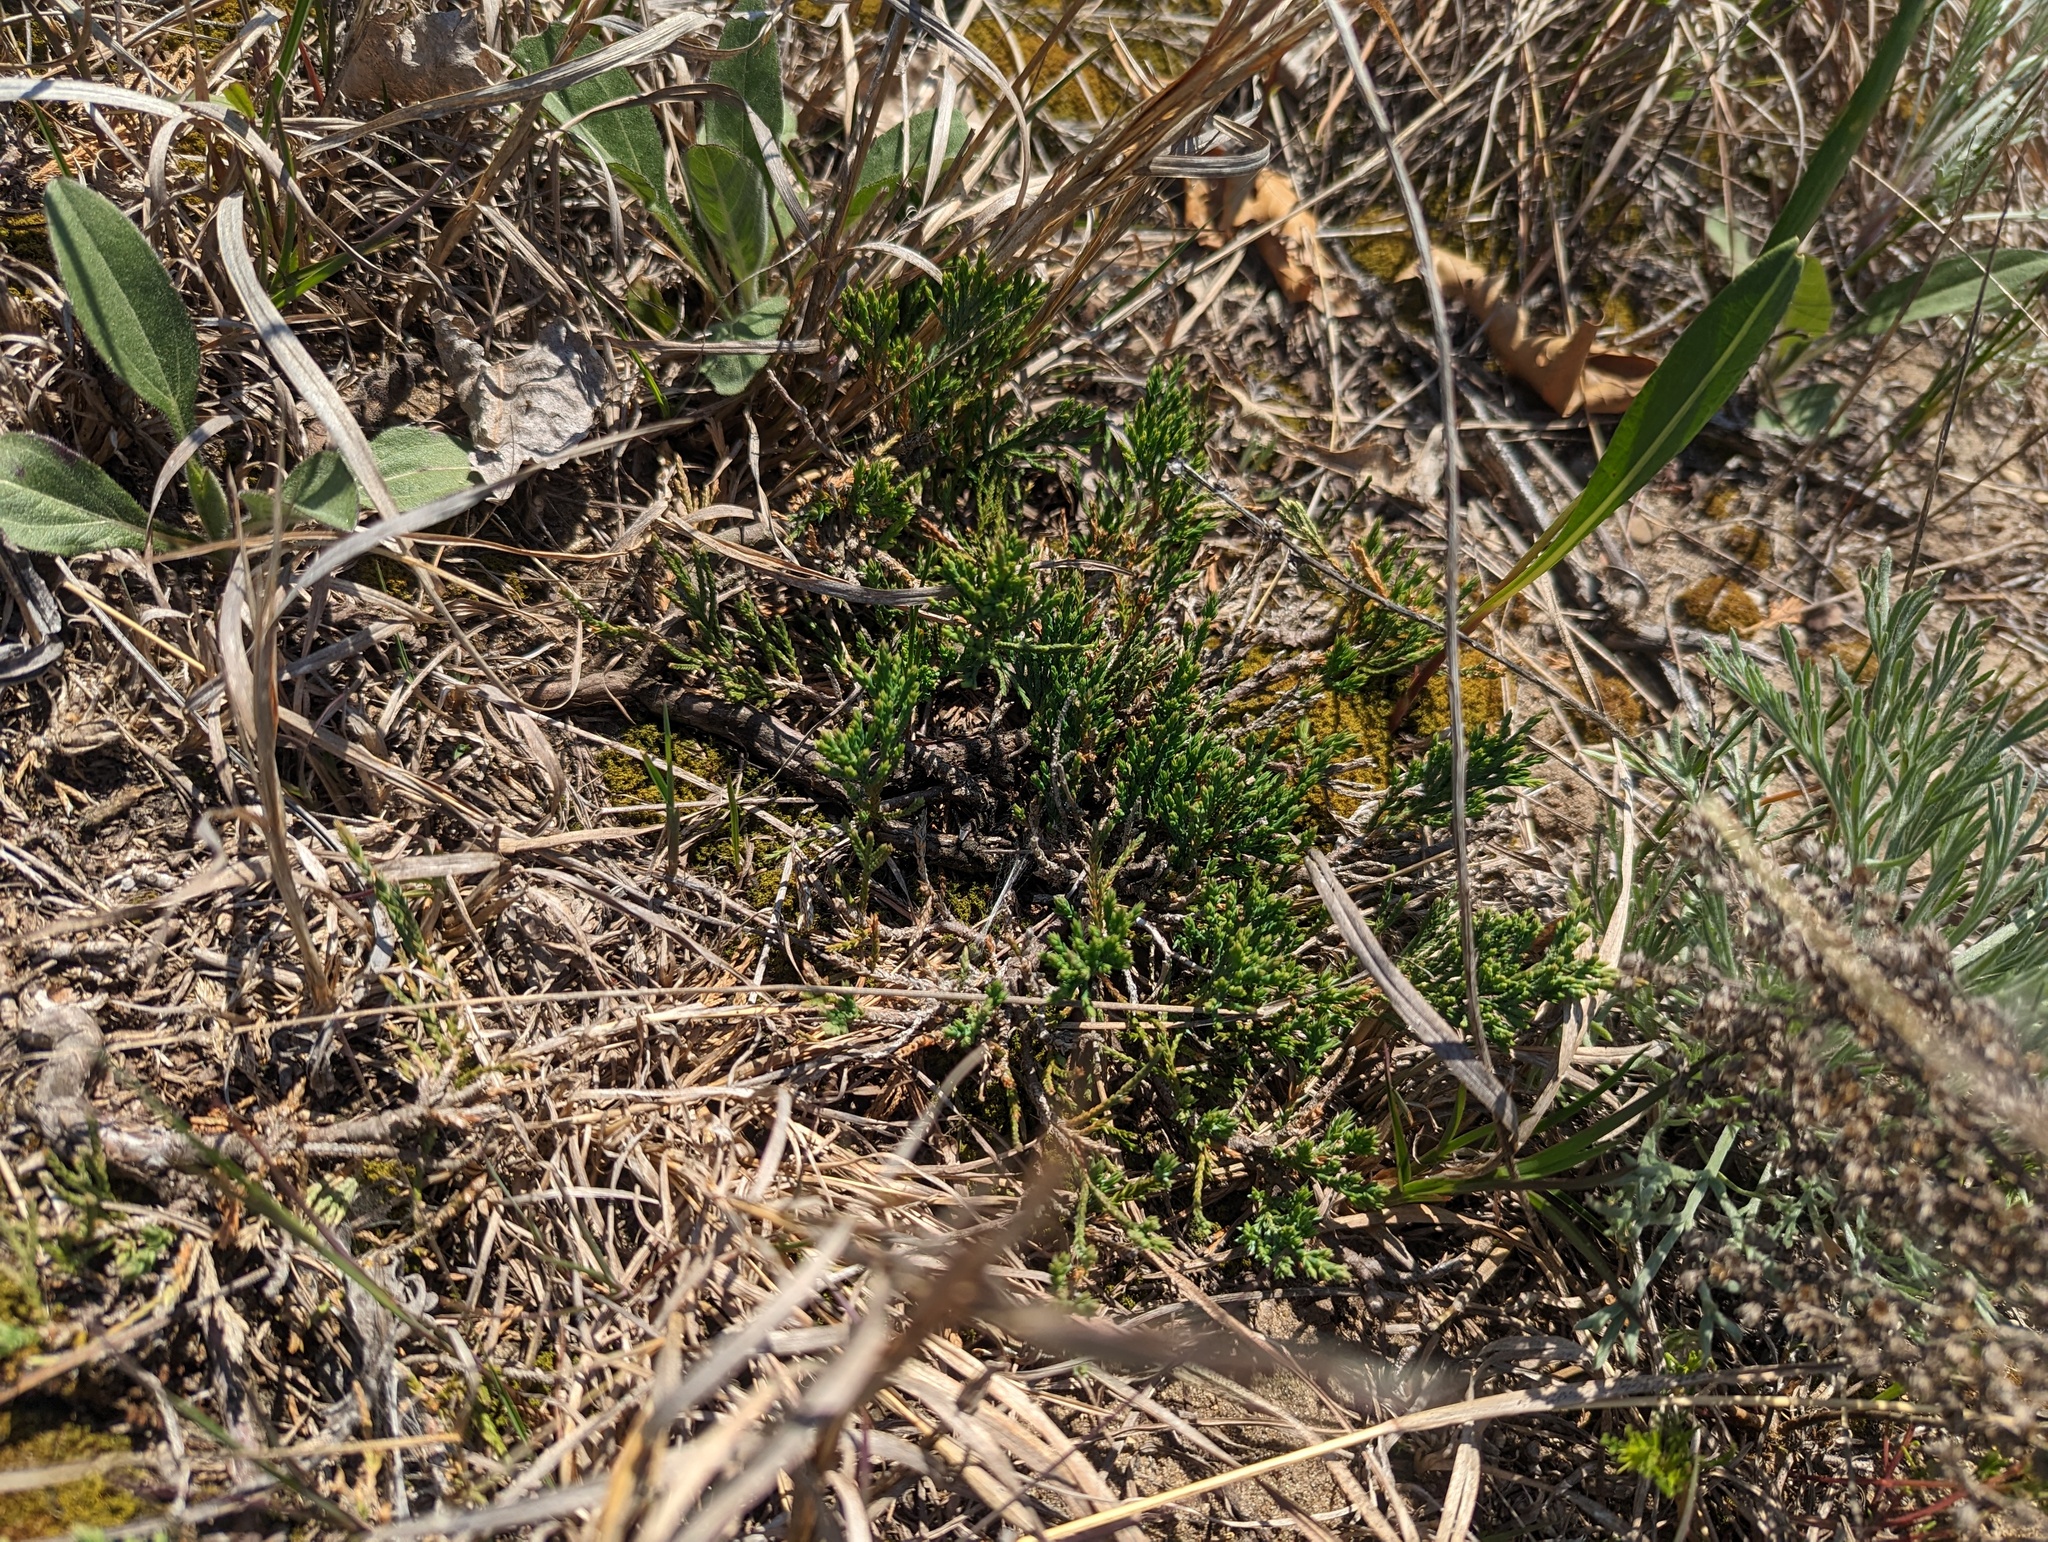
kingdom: Plantae
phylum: Tracheophyta
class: Pinopsida
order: Pinales
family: Cupressaceae
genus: Juniperus
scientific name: Juniperus horizontalis
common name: Creeping juniper
